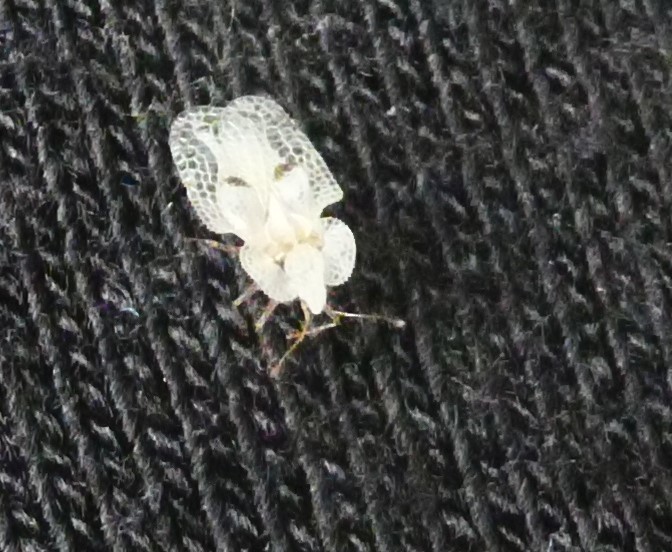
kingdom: Animalia
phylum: Arthropoda
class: Insecta
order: Hemiptera
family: Tingidae
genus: Corythucha
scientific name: Corythucha ciliata
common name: Sycamore lace bug
